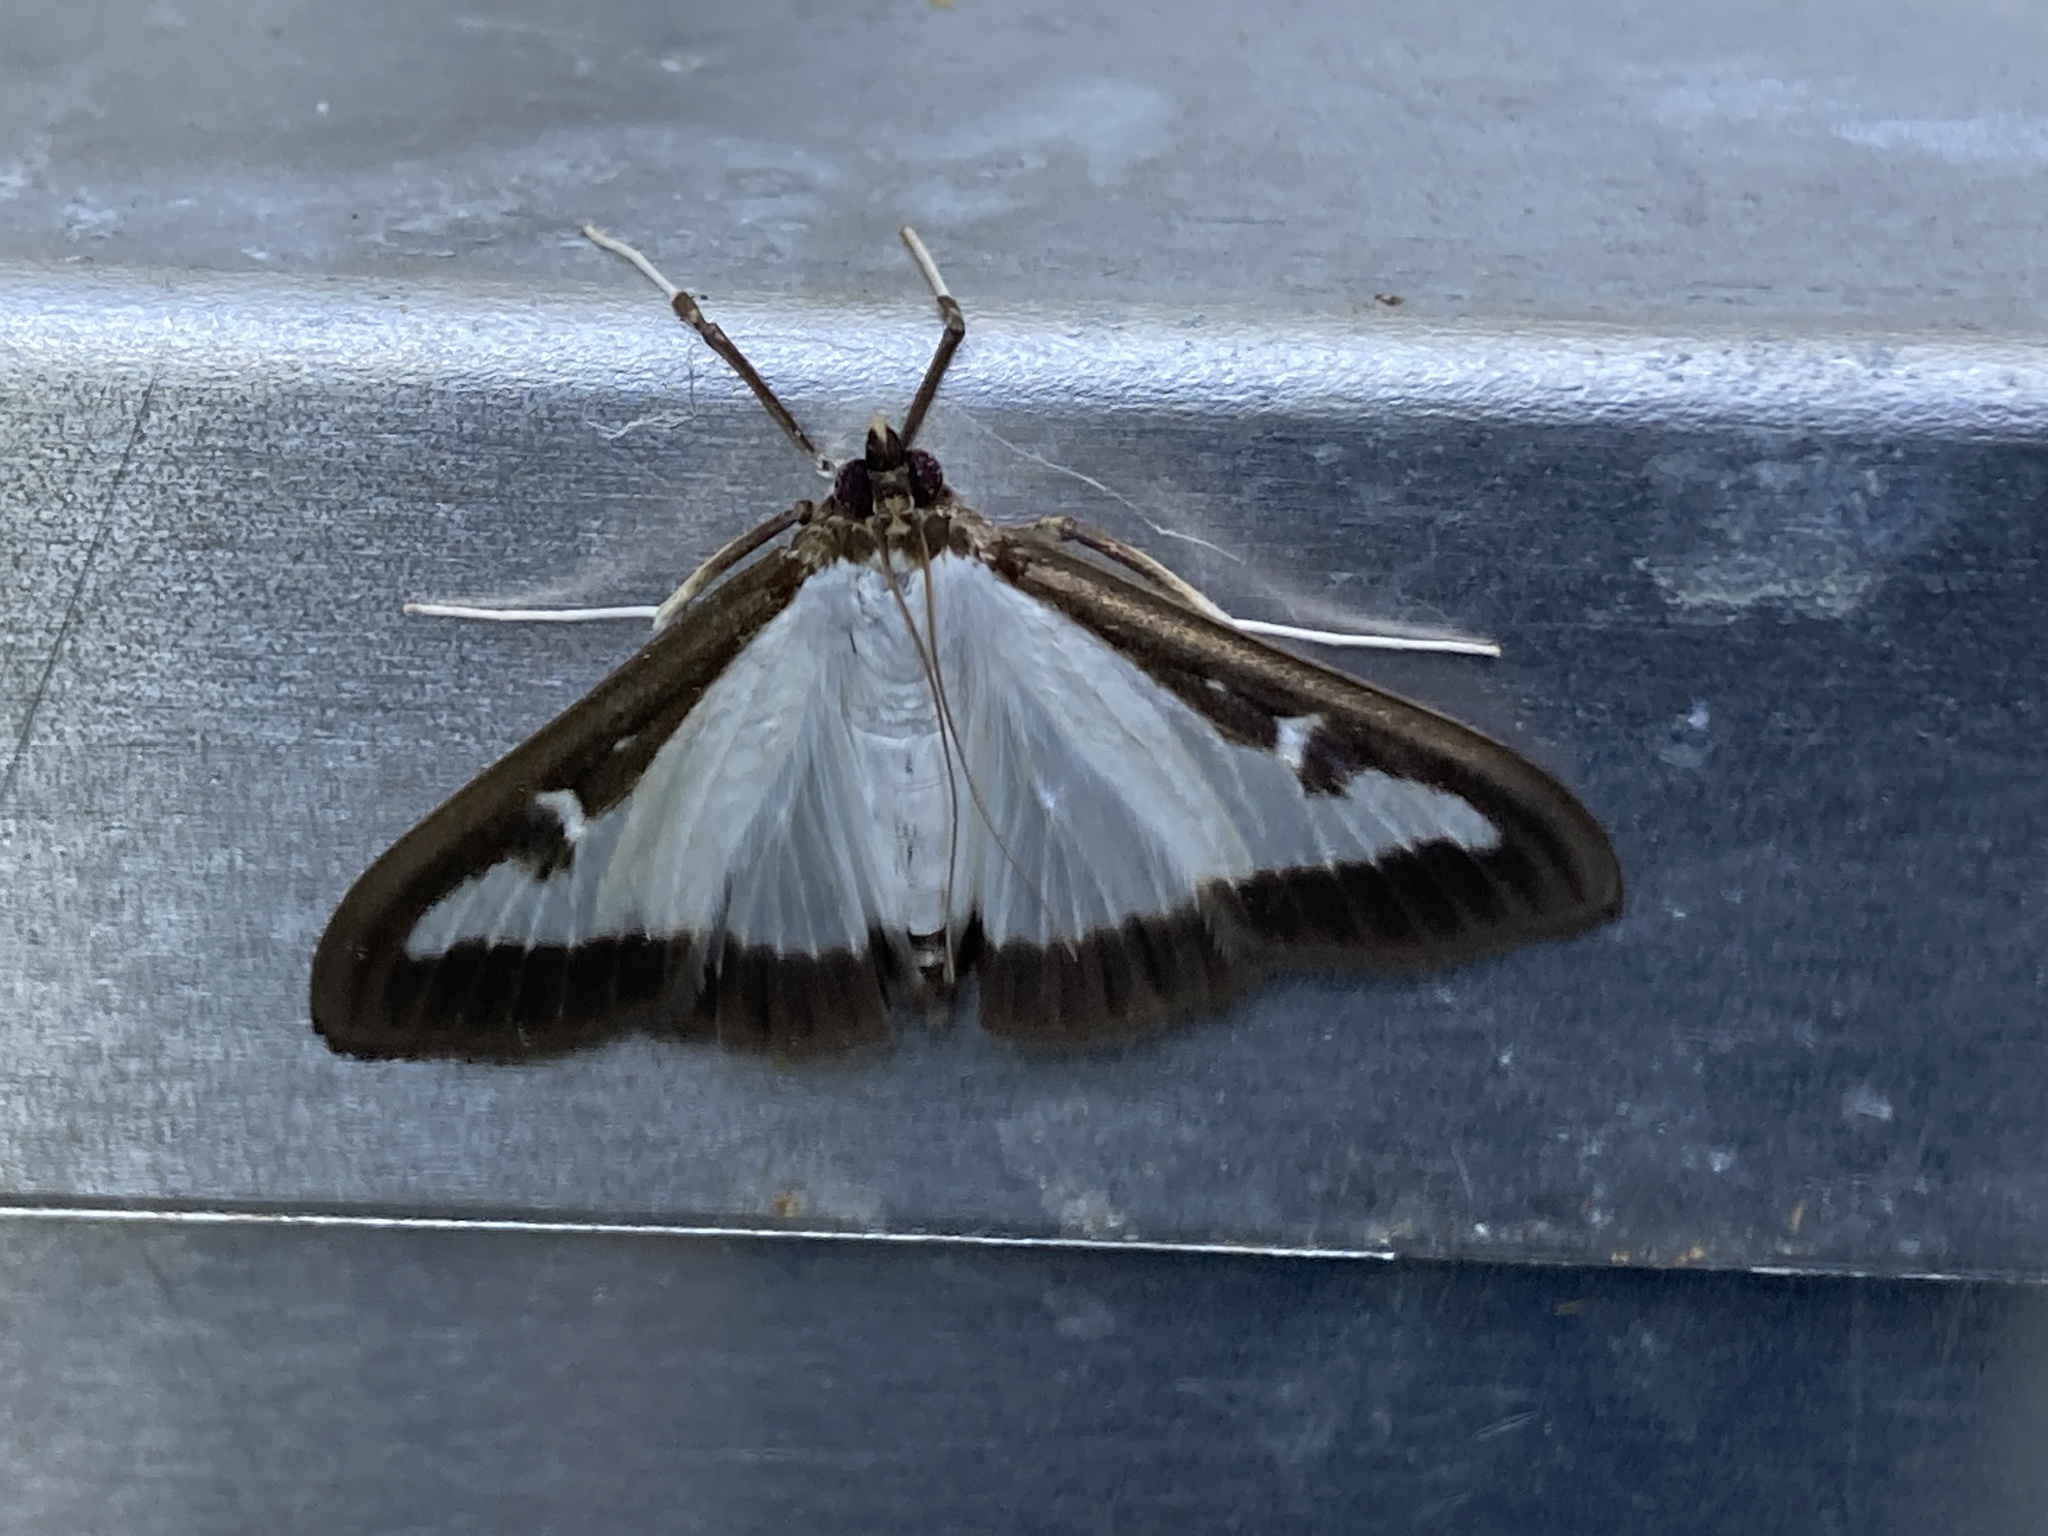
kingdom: Animalia
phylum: Arthropoda
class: Insecta
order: Lepidoptera
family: Crambidae
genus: Cydalima
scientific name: Cydalima perspectalis
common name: Box tree moth
